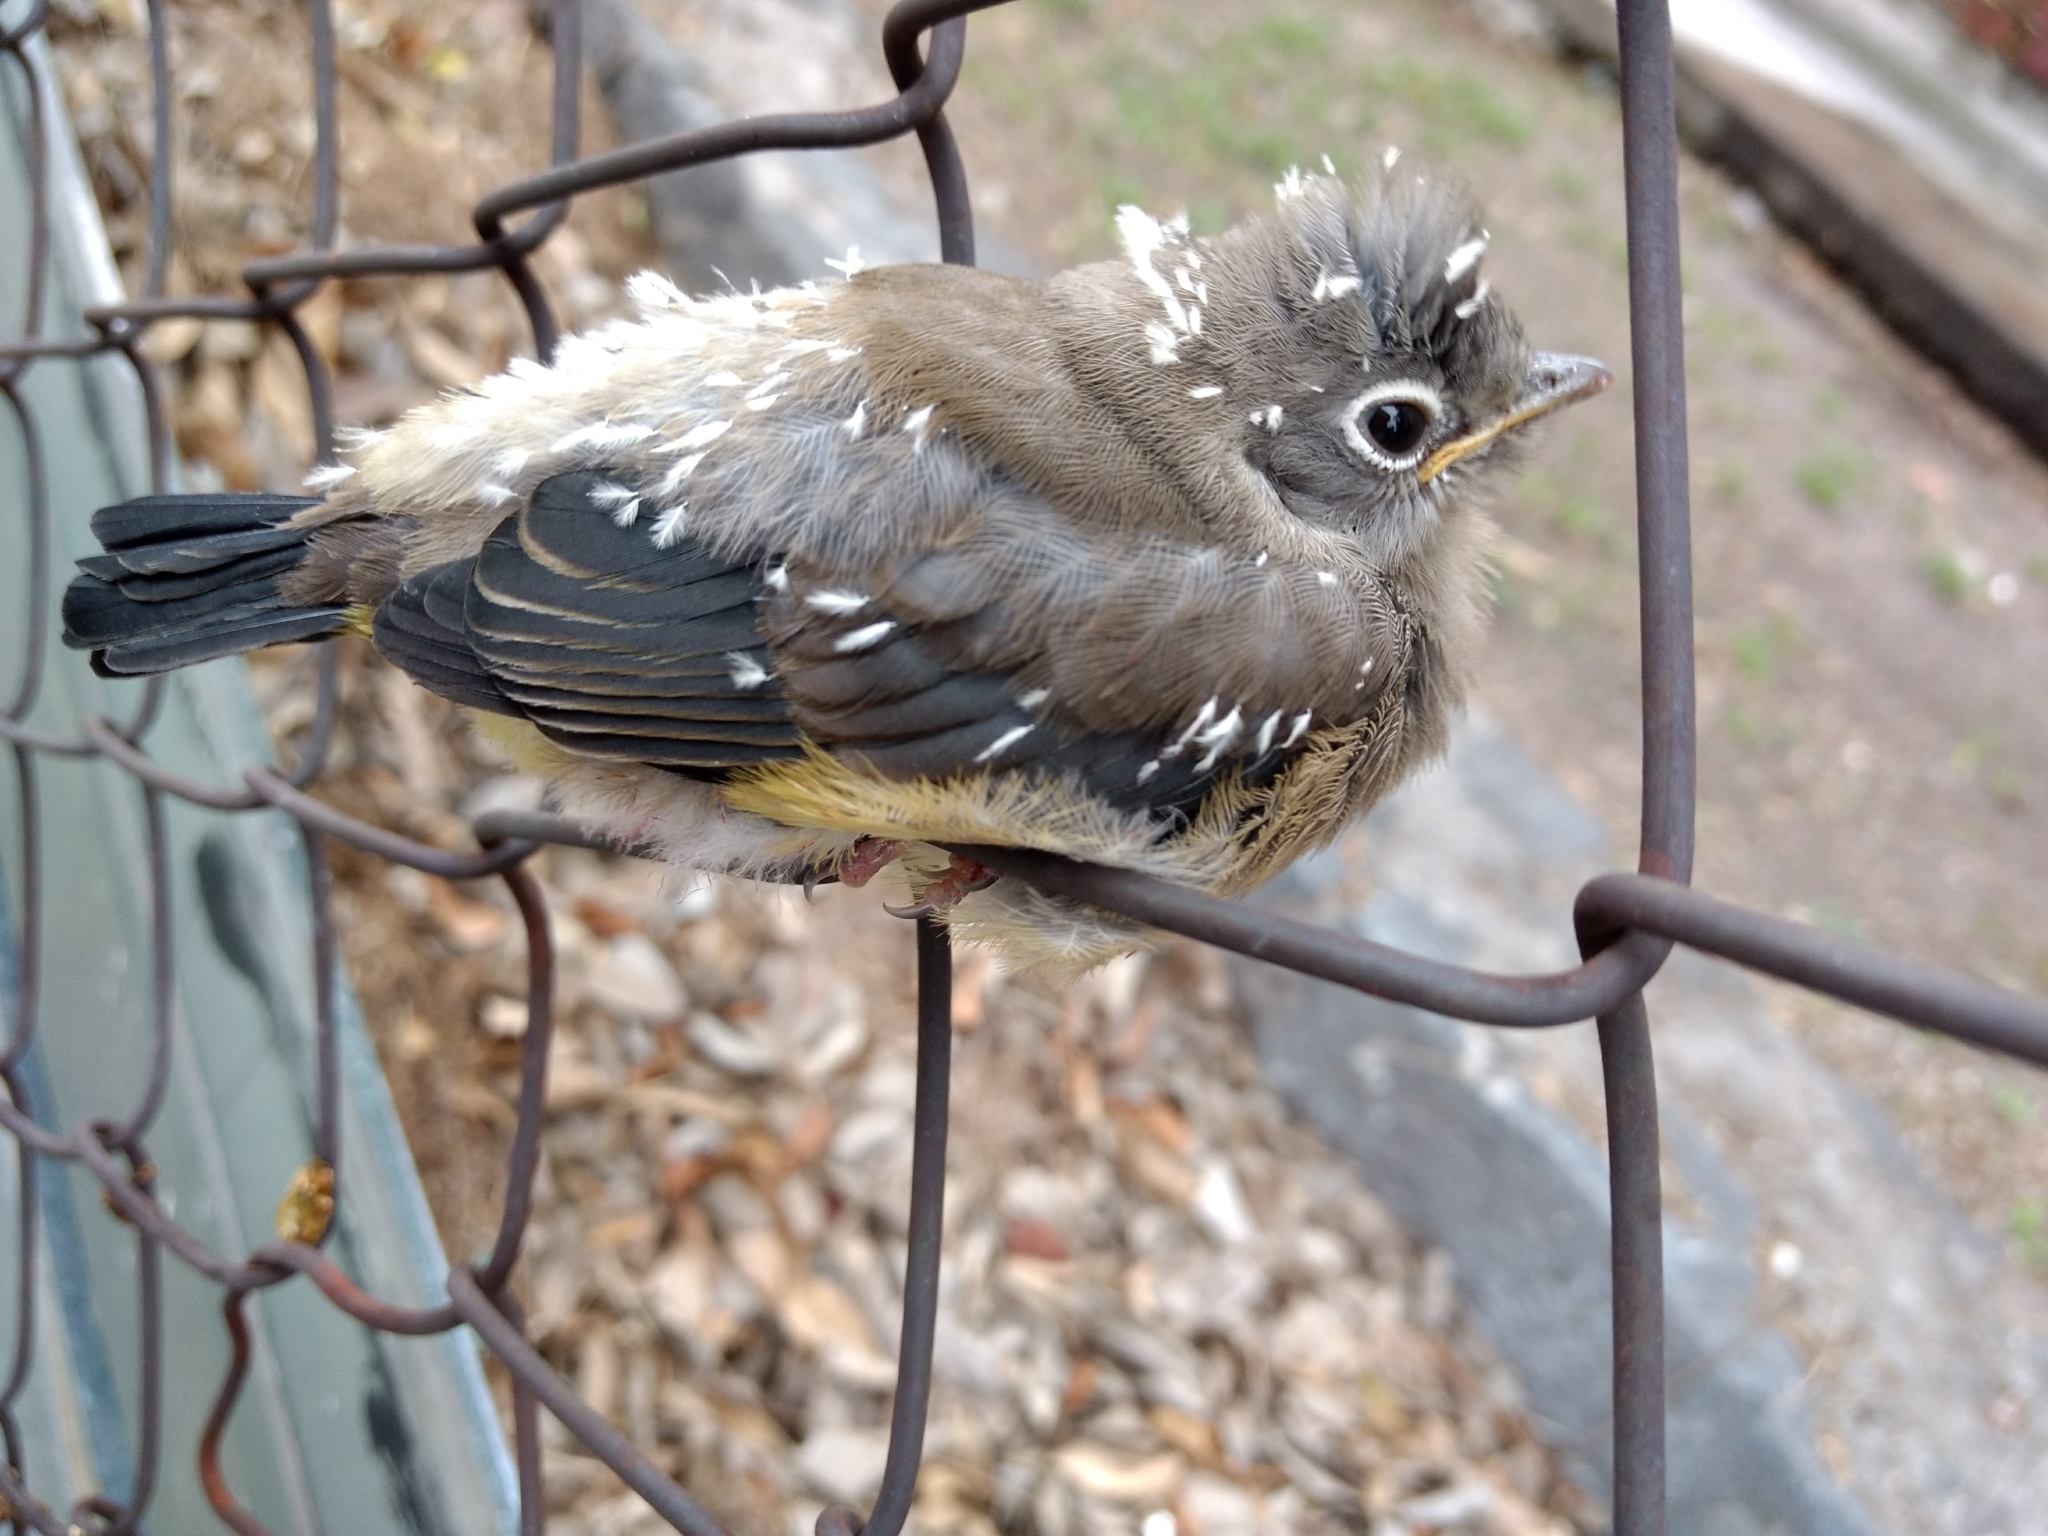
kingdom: Animalia
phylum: Chordata
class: Aves
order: Passeriformes
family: Ptilogonatidae
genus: Ptilogonys
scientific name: Ptilogonys cinereus
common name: Gray silky-flycatcher
